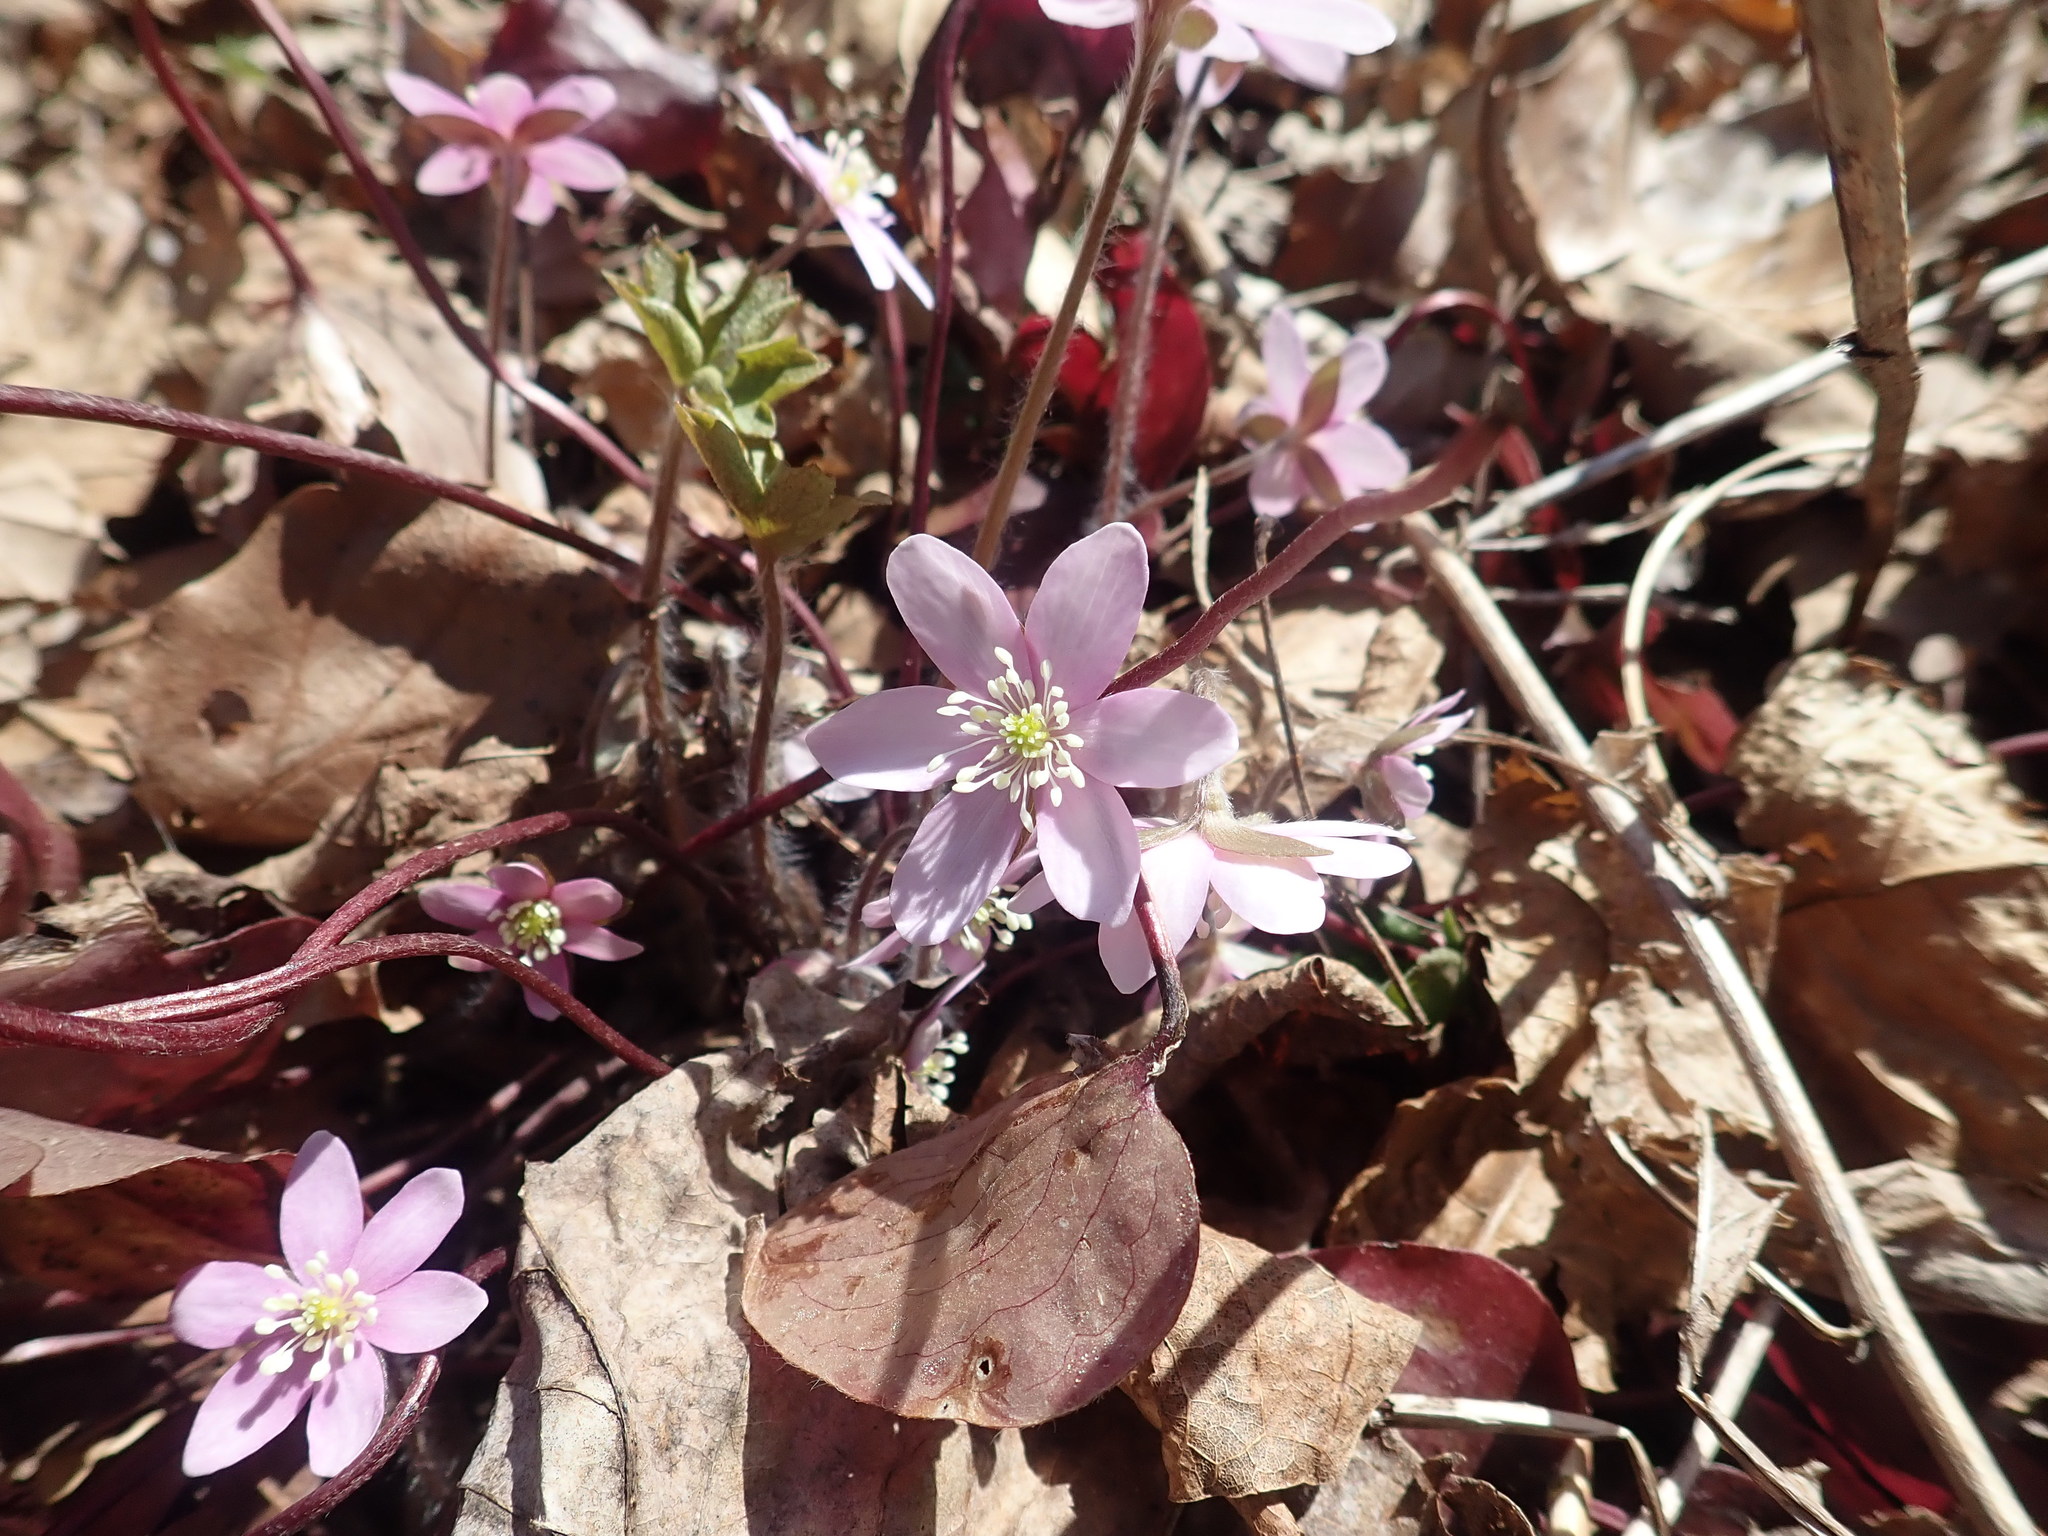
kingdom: Plantae
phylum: Tracheophyta
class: Magnoliopsida
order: Ranunculales
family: Ranunculaceae
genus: Hepatica
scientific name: Hepatica americana
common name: American hepatica
